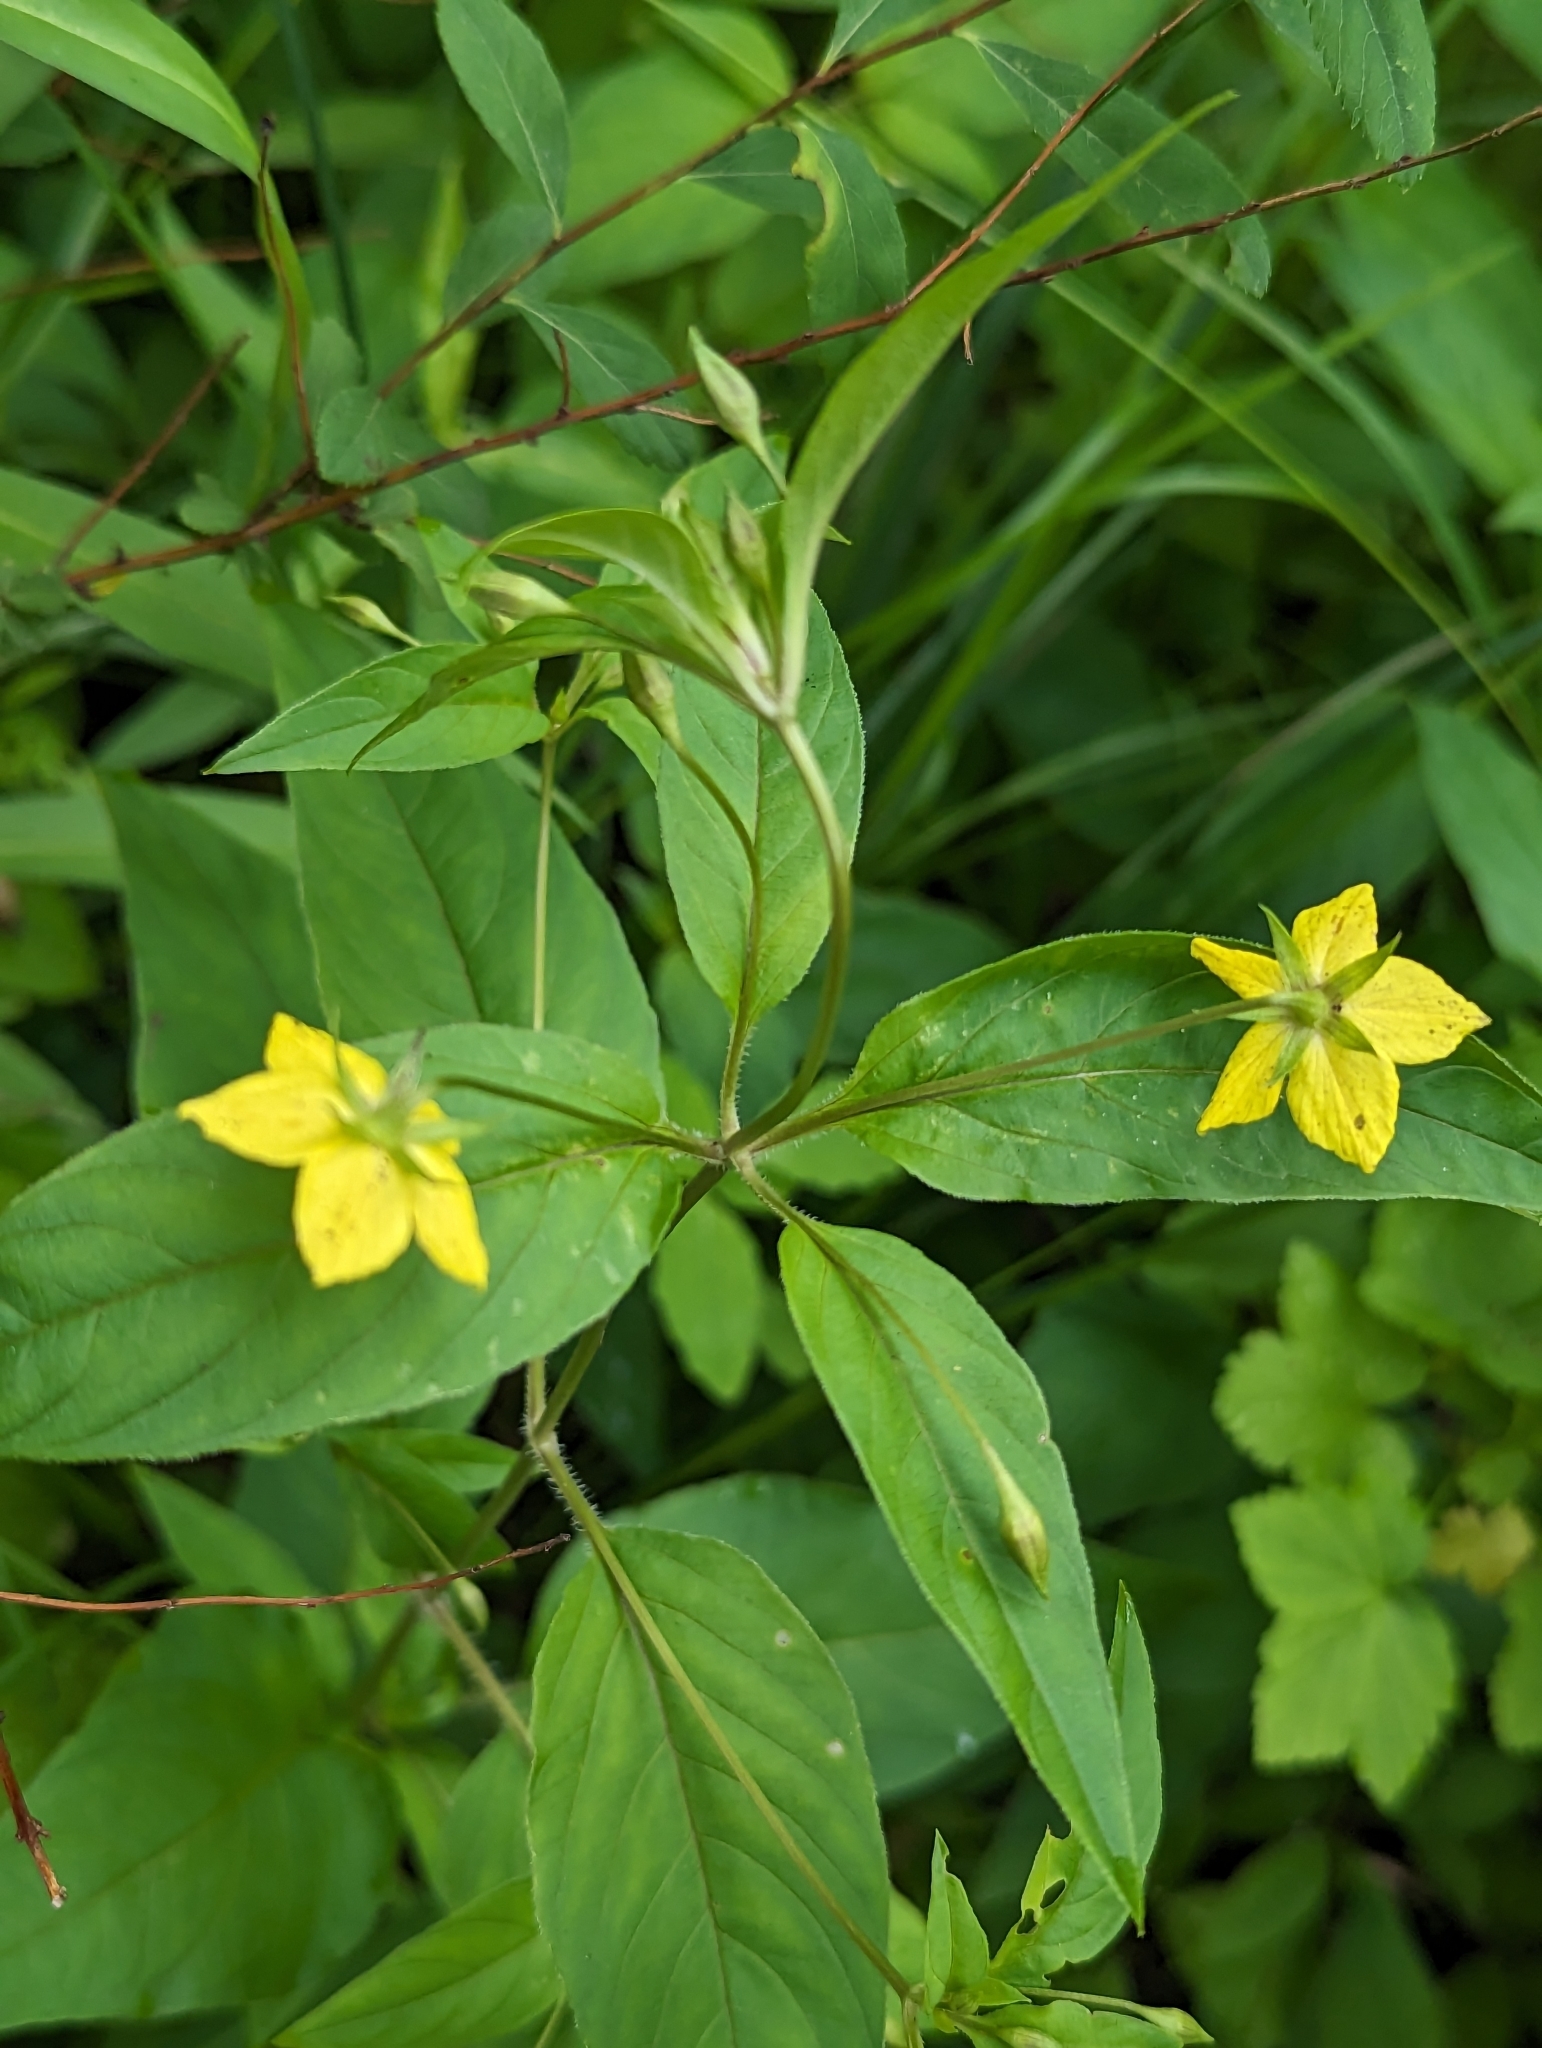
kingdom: Plantae
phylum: Tracheophyta
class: Magnoliopsida
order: Ericales
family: Primulaceae
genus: Lysimachia
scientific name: Lysimachia ciliata
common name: Fringed loosestrife
